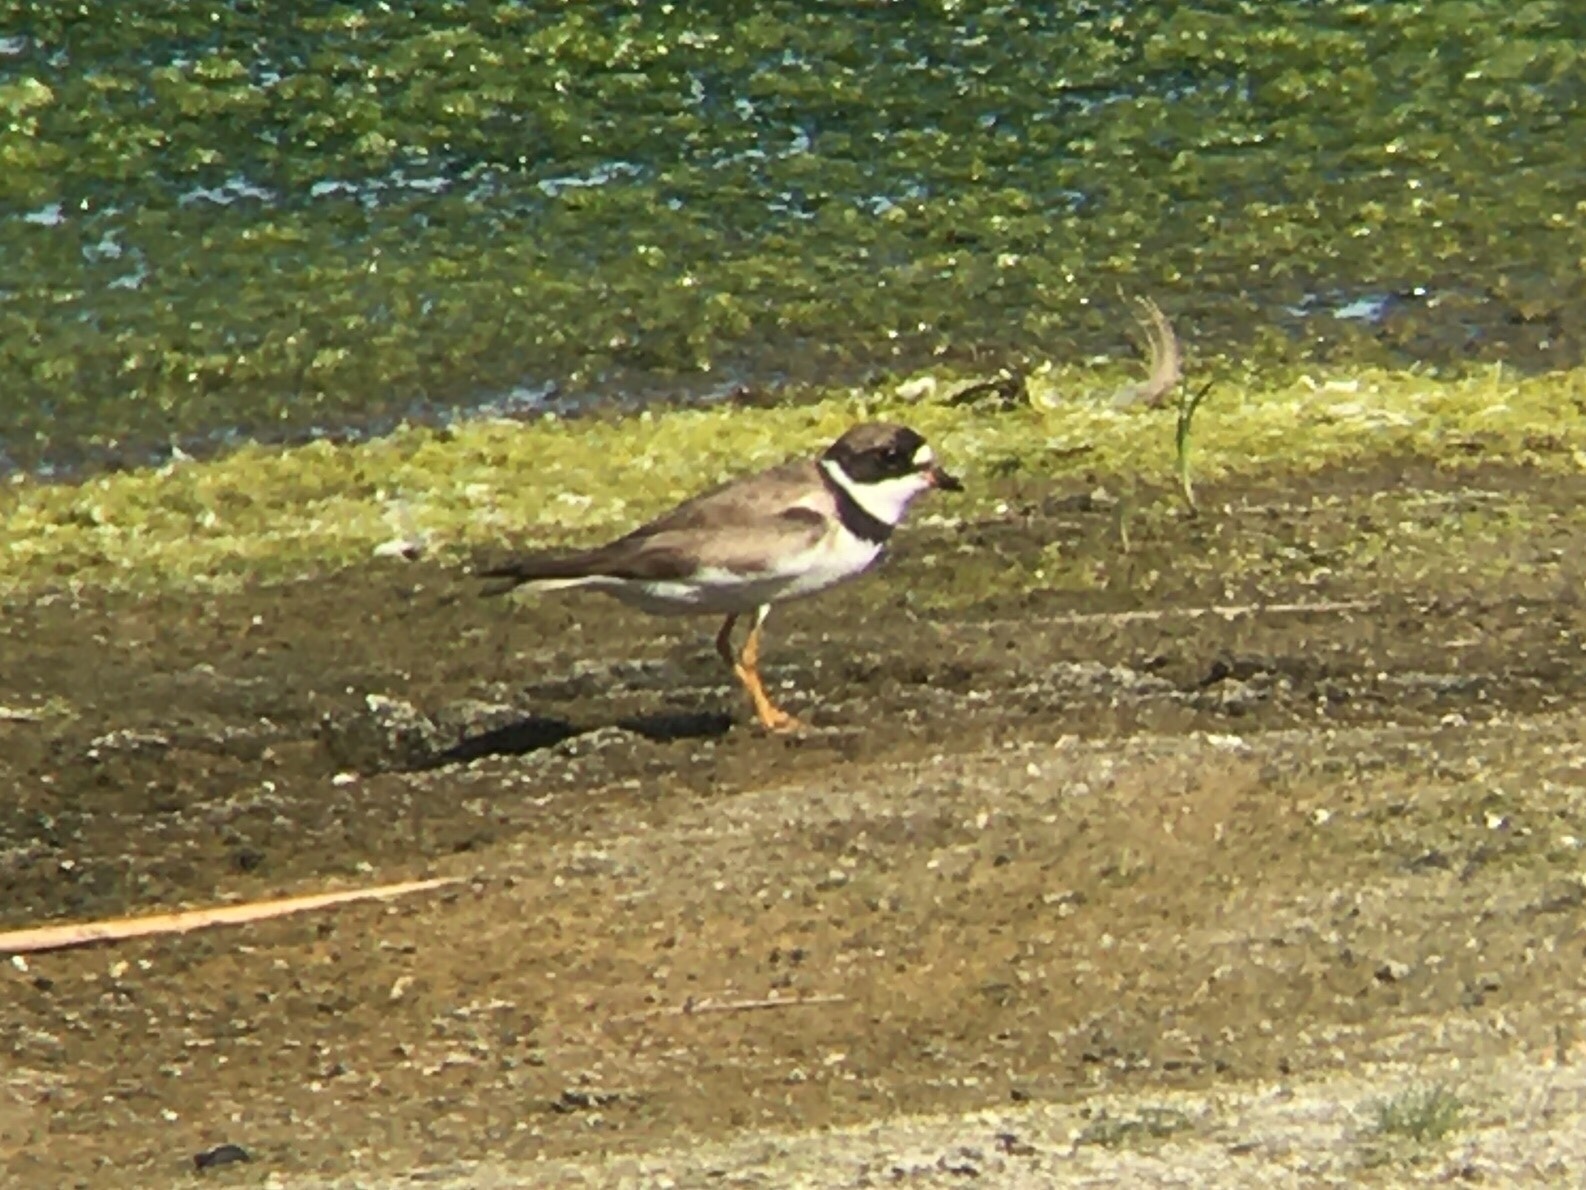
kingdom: Animalia
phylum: Chordata
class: Aves
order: Charadriiformes
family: Charadriidae
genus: Charadrius
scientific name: Charadrius semipalmatus
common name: Semipalmated plover
